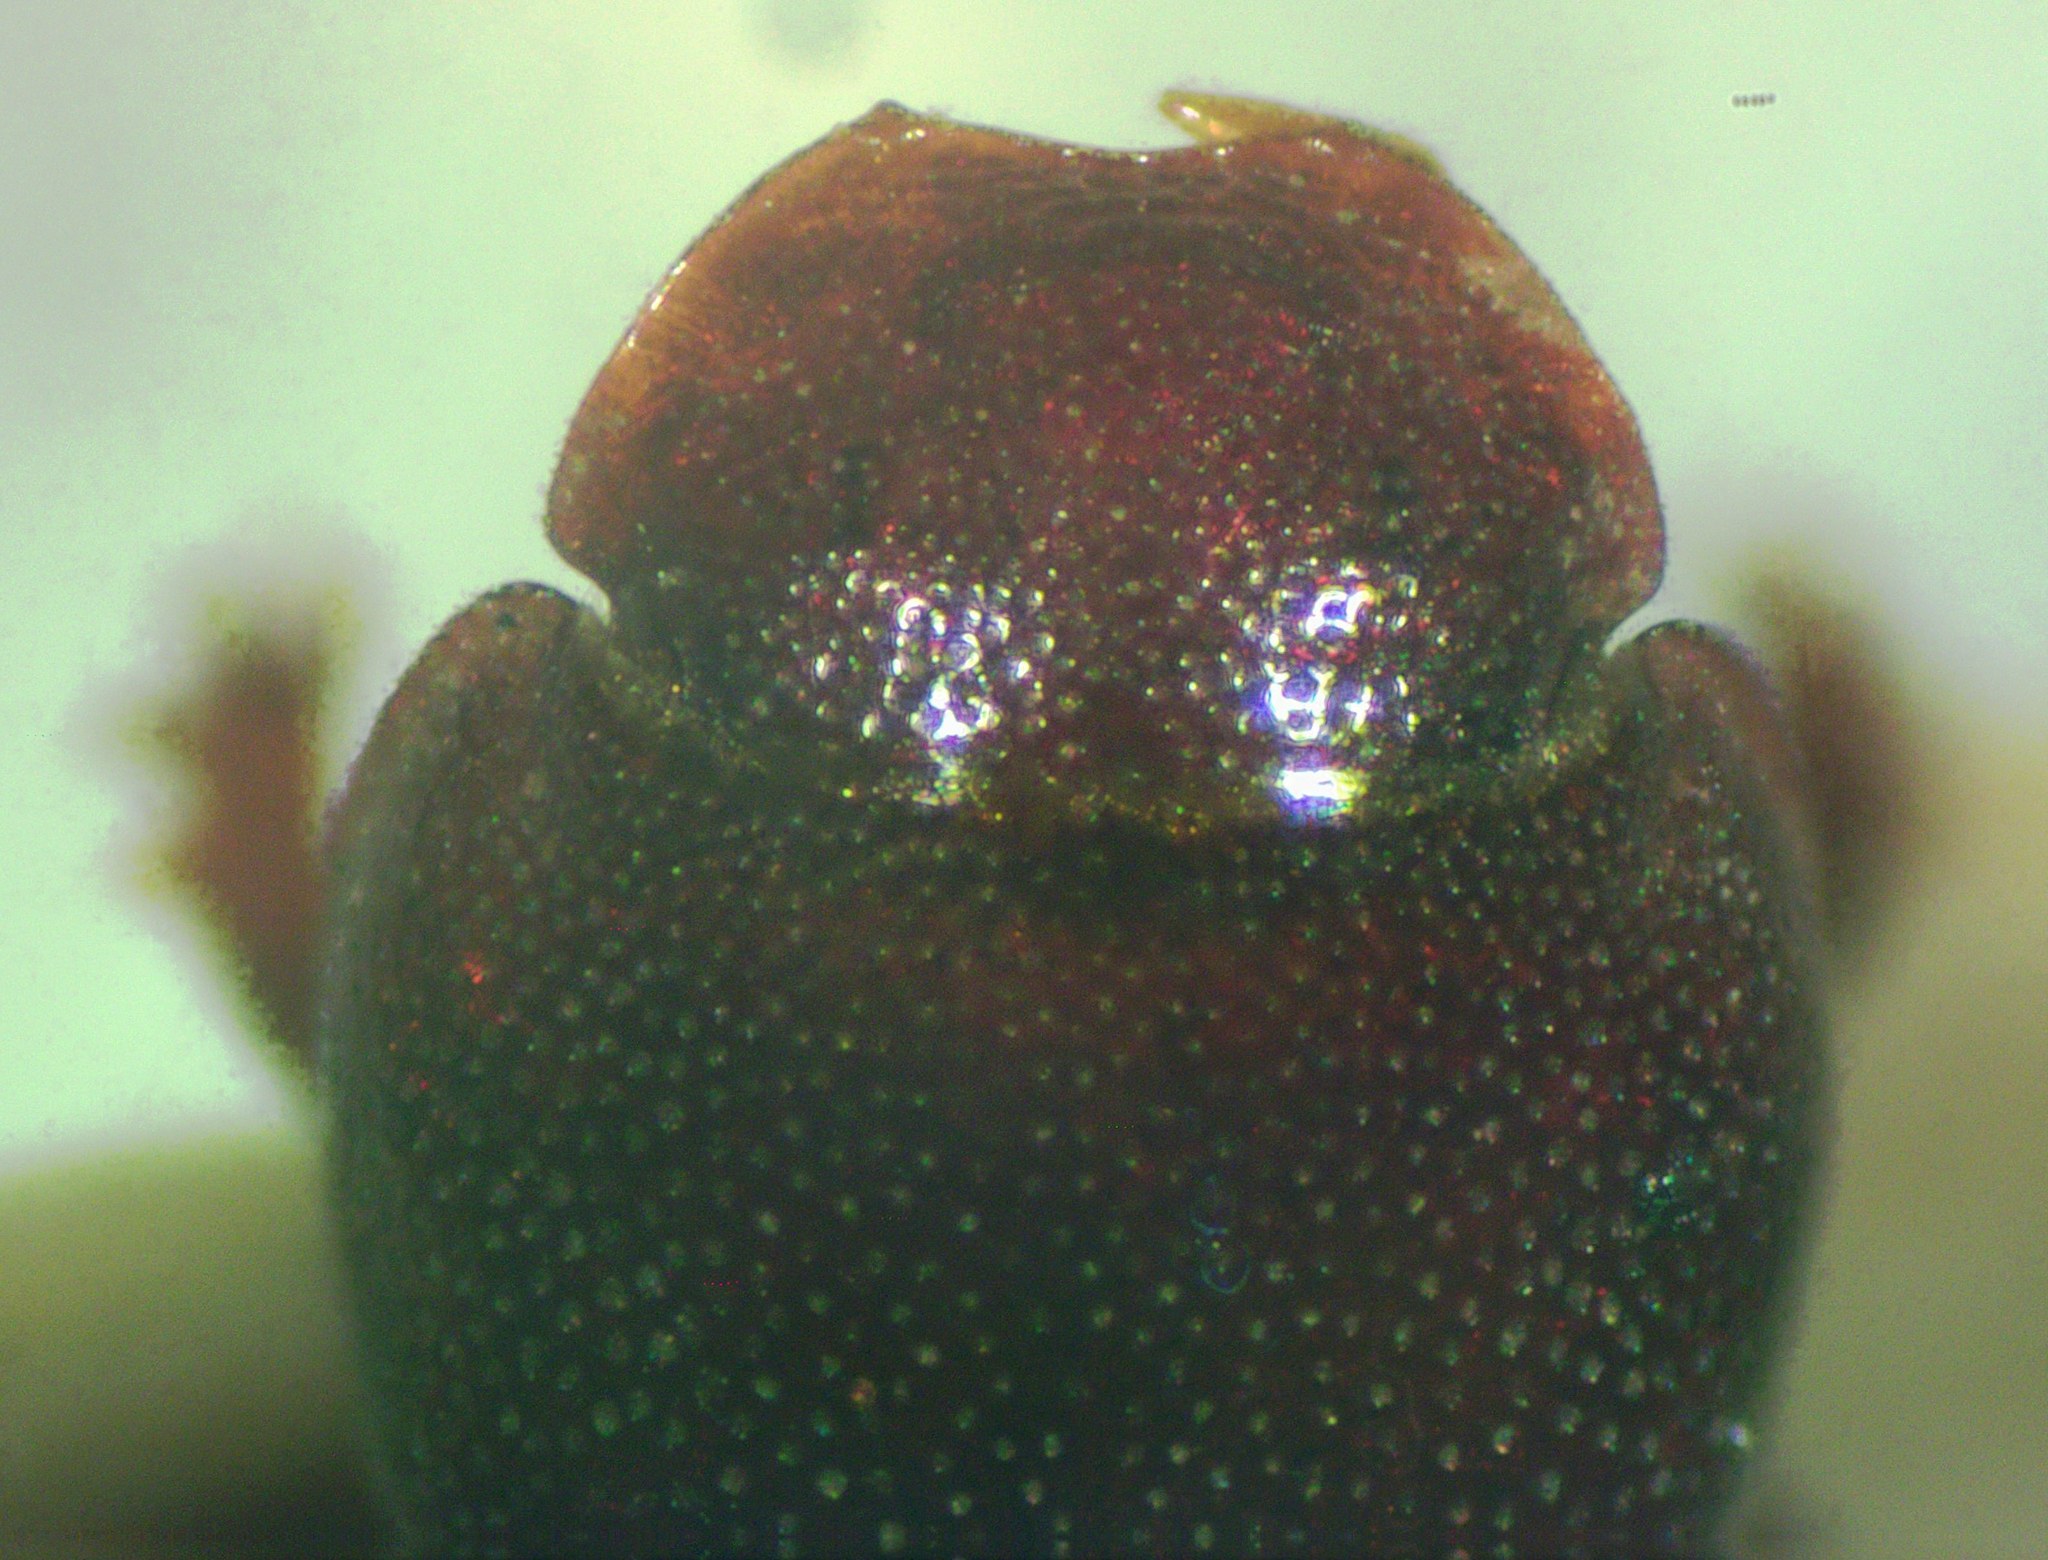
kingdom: Animalia
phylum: Arthropoda
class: Insecta
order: Coleoptera
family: Scarabaeidae
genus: Ataenius
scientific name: Ataenius scalptifrons
